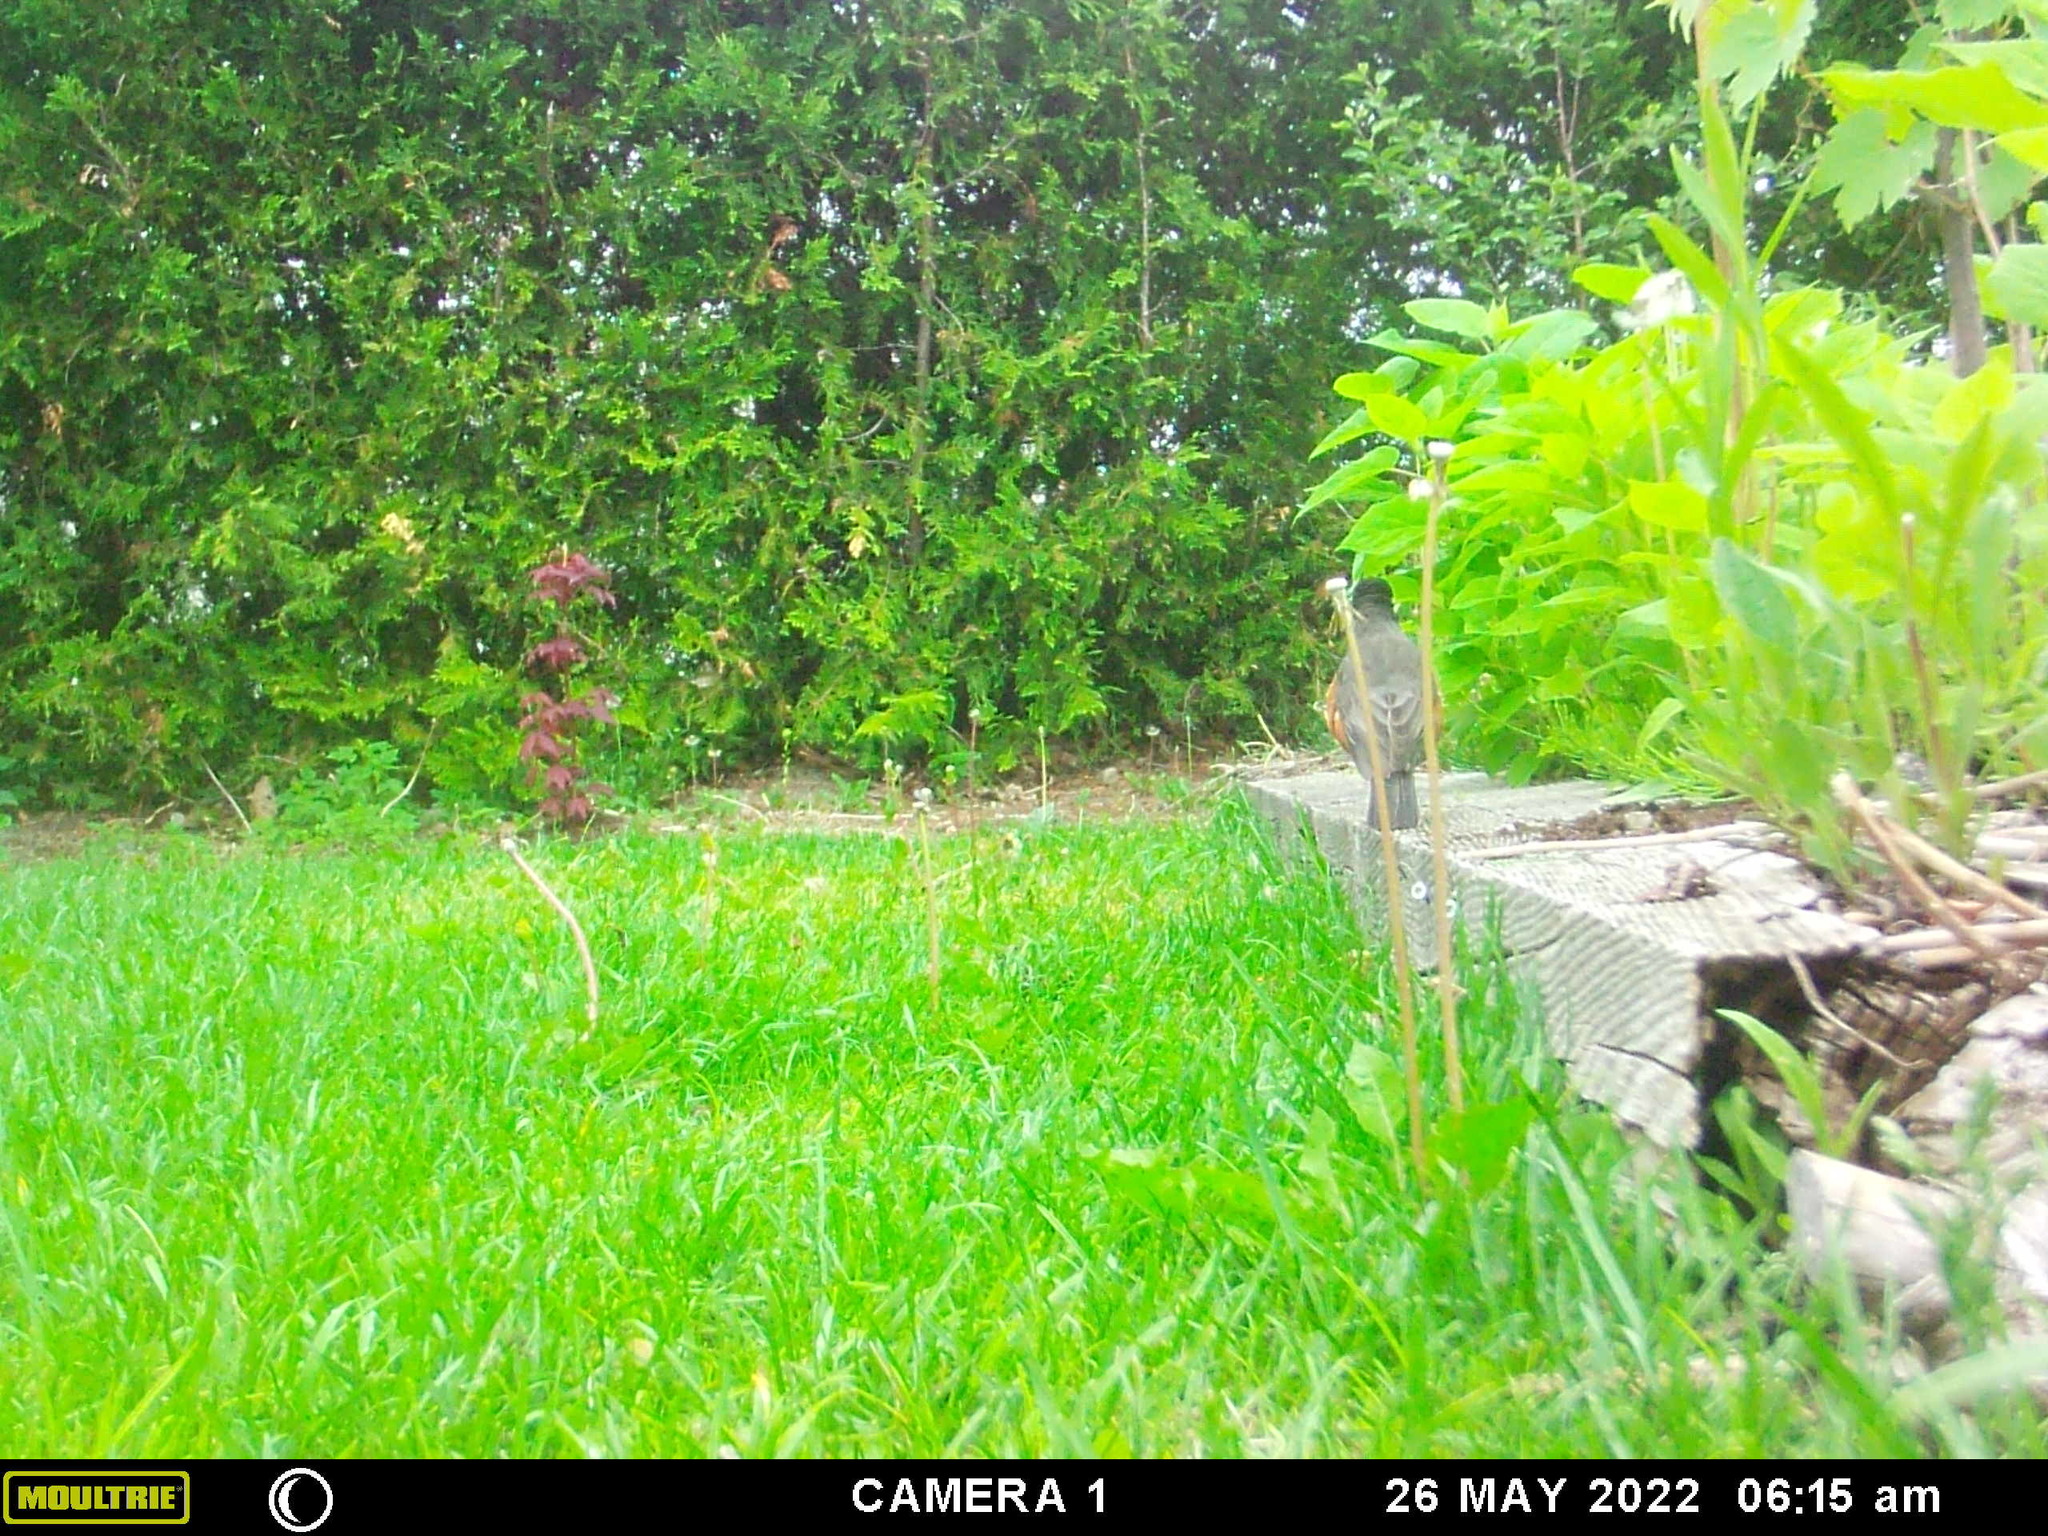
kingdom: Animalia
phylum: Chordata
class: Aves
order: Passeriformes
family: Turdidae
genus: Turdus
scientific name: Turdus migratorius
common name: American robin
